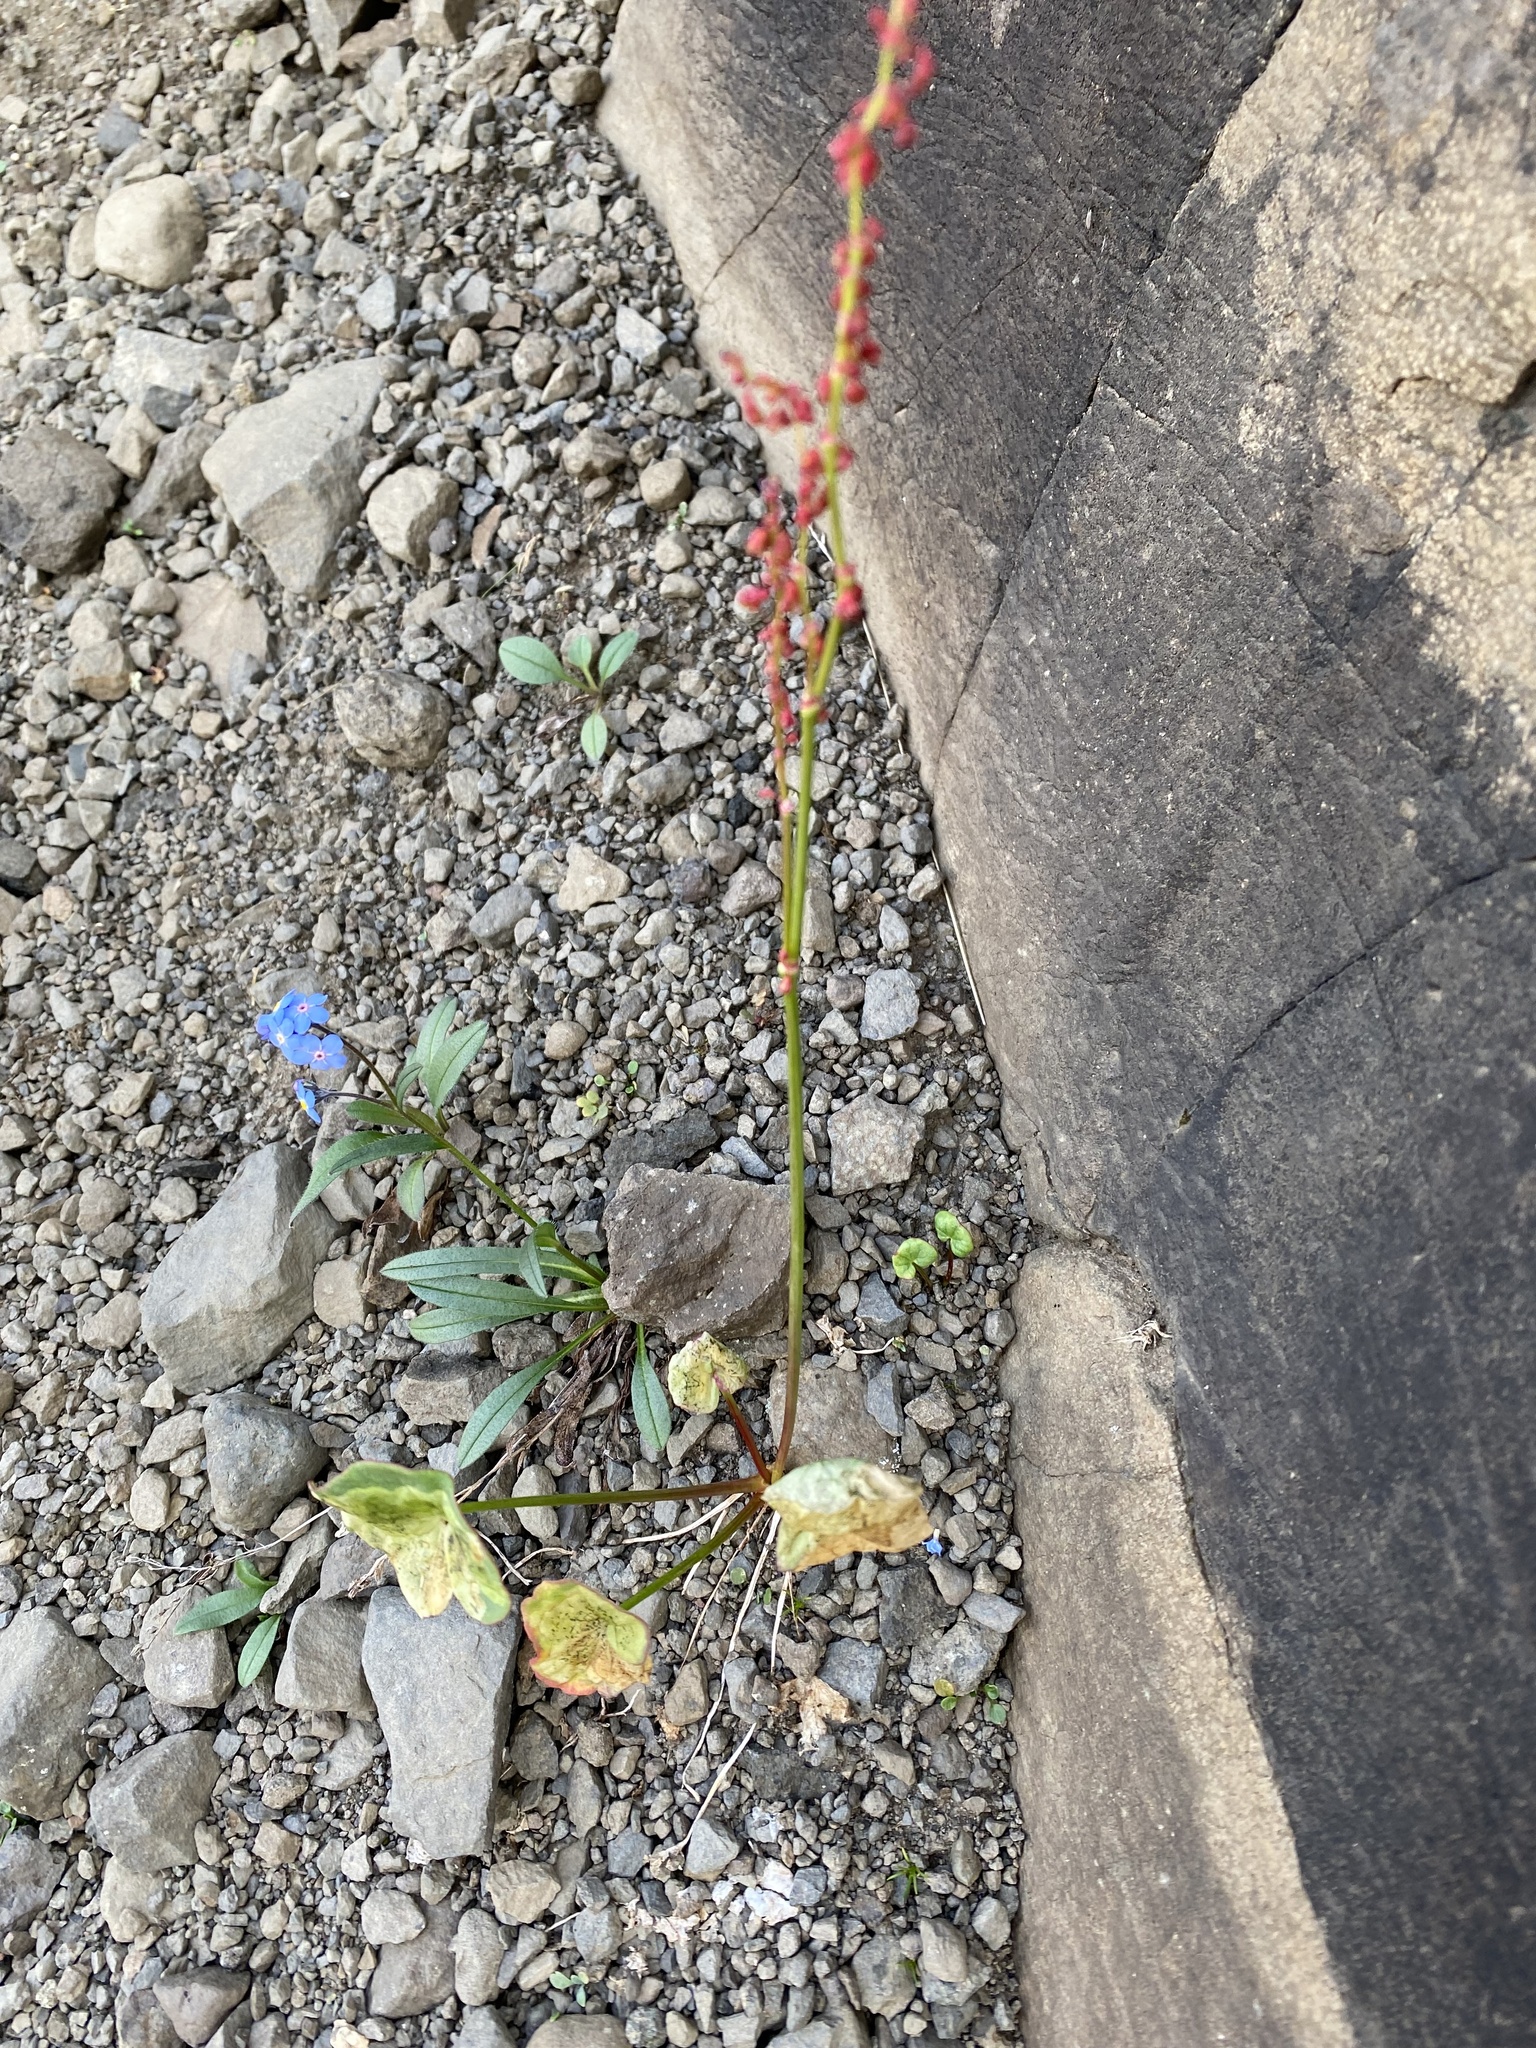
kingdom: Plantae
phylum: Tracheophyta
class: Magnoliopsida
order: Caryophyllales
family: Polygonaceae
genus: Oxyria
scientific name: Oxyria digyna
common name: Alpine mountain-sorrel
